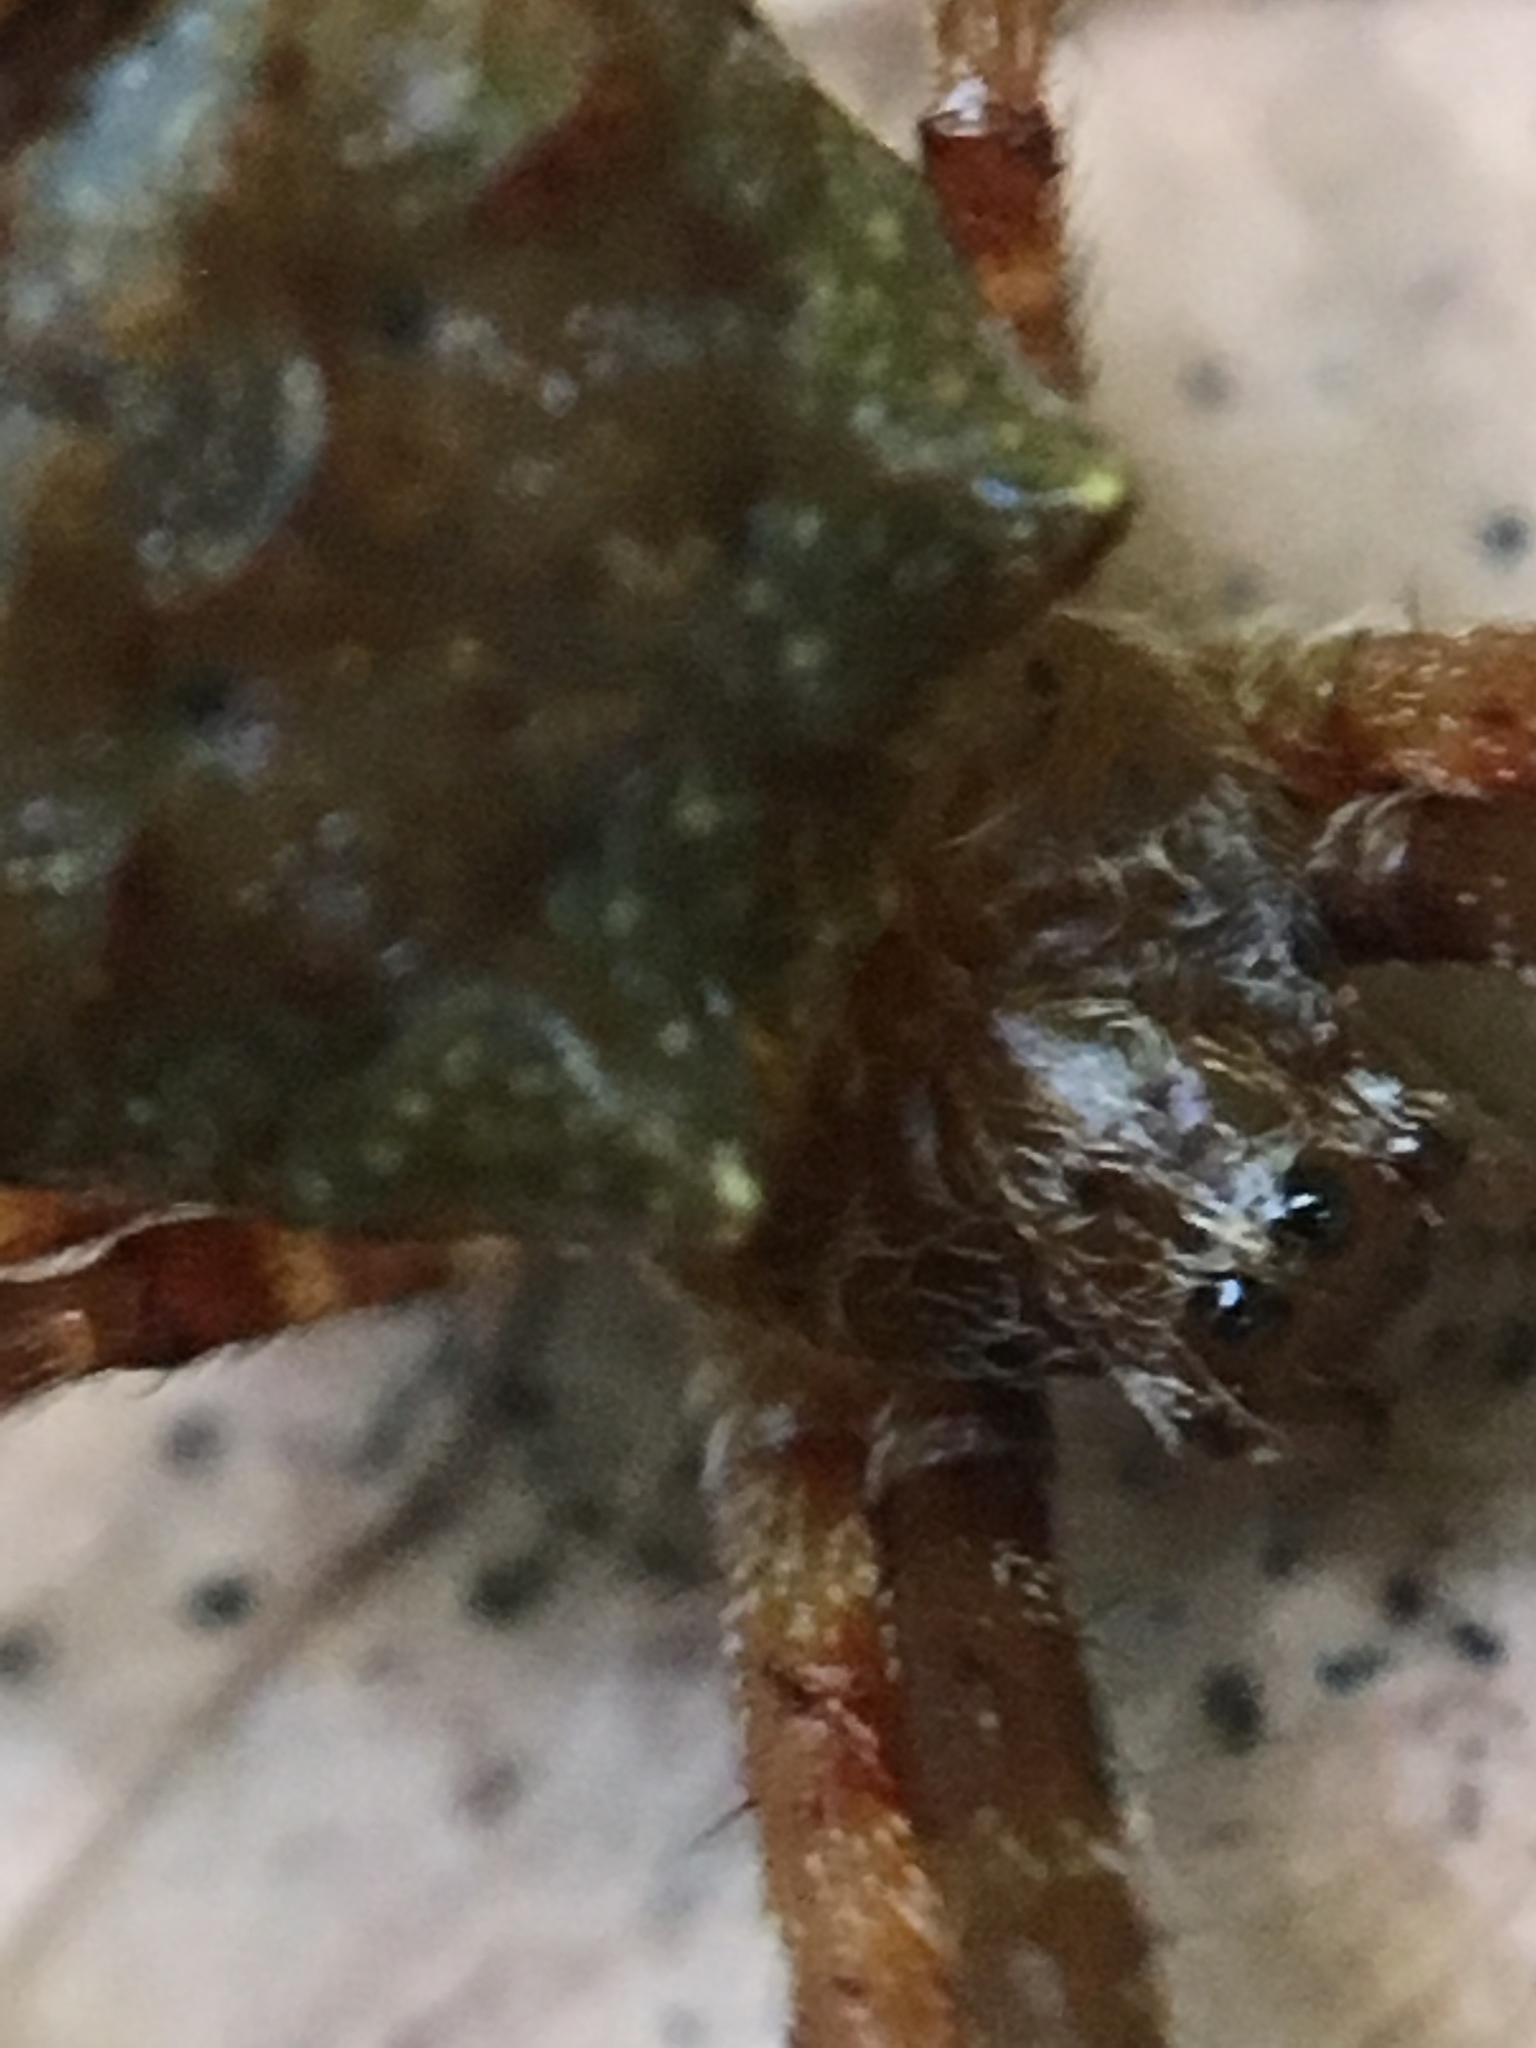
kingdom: Animalia
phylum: Arthropoda
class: Arachnida
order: Araneae
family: Araneidae
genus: Gea
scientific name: Gea heptagon
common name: Orb weavers
